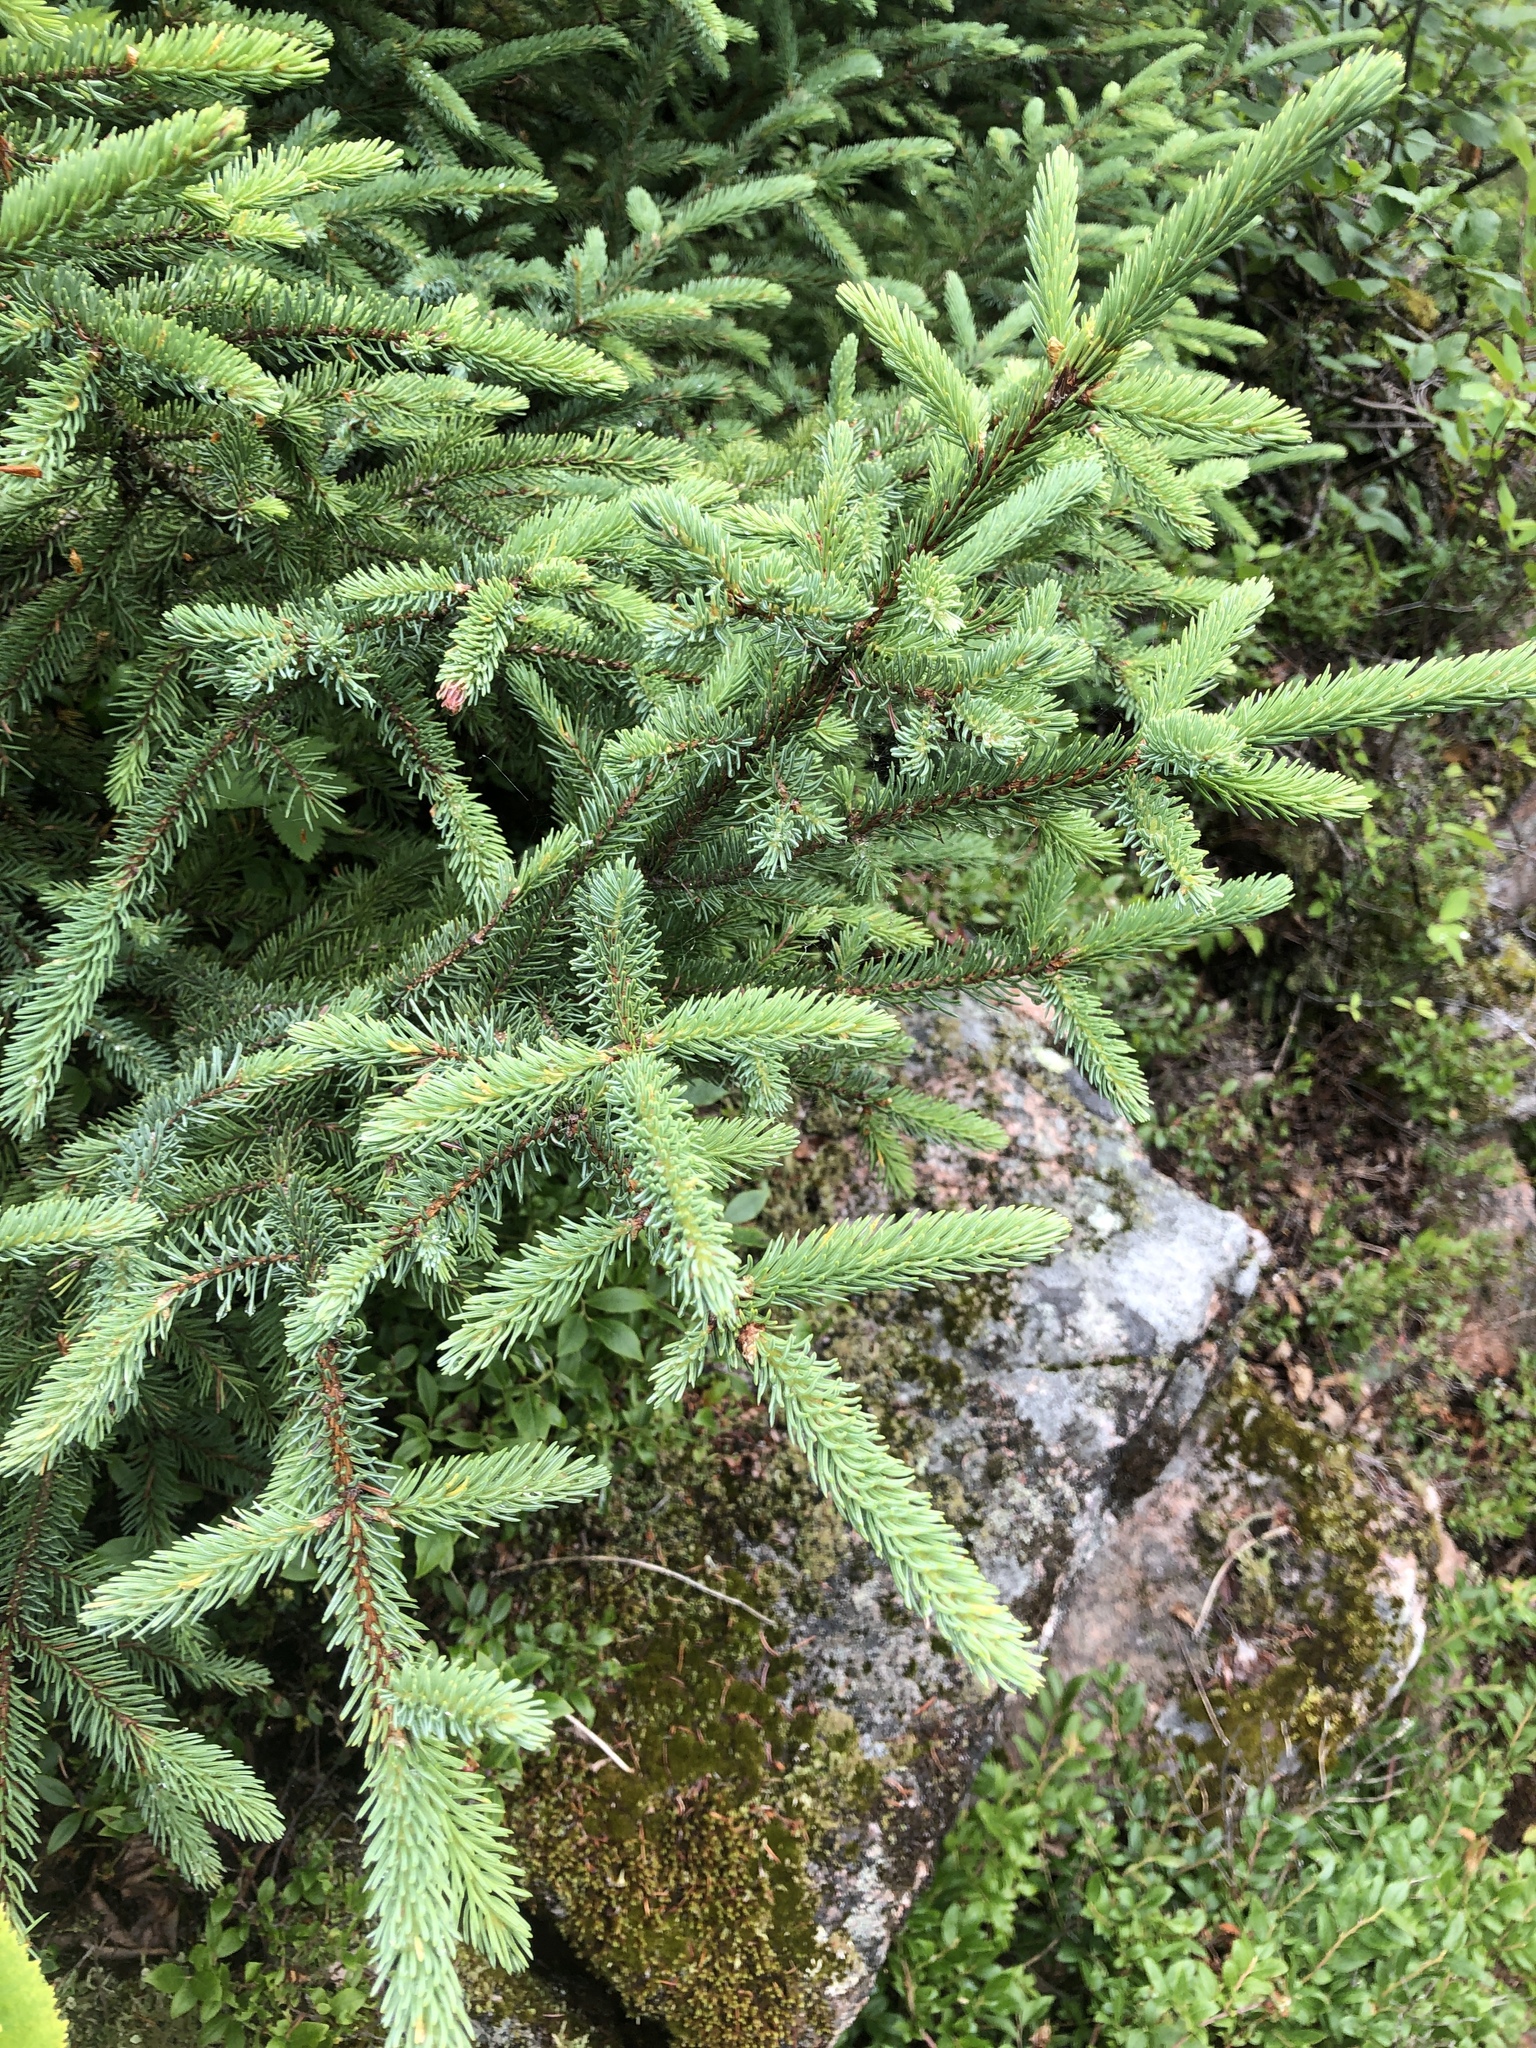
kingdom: Plantae
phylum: Tracheophyta
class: Pinopsida
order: Pinales
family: Pinaceae
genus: Picea
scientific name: Picea mariana
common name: Black spruce
